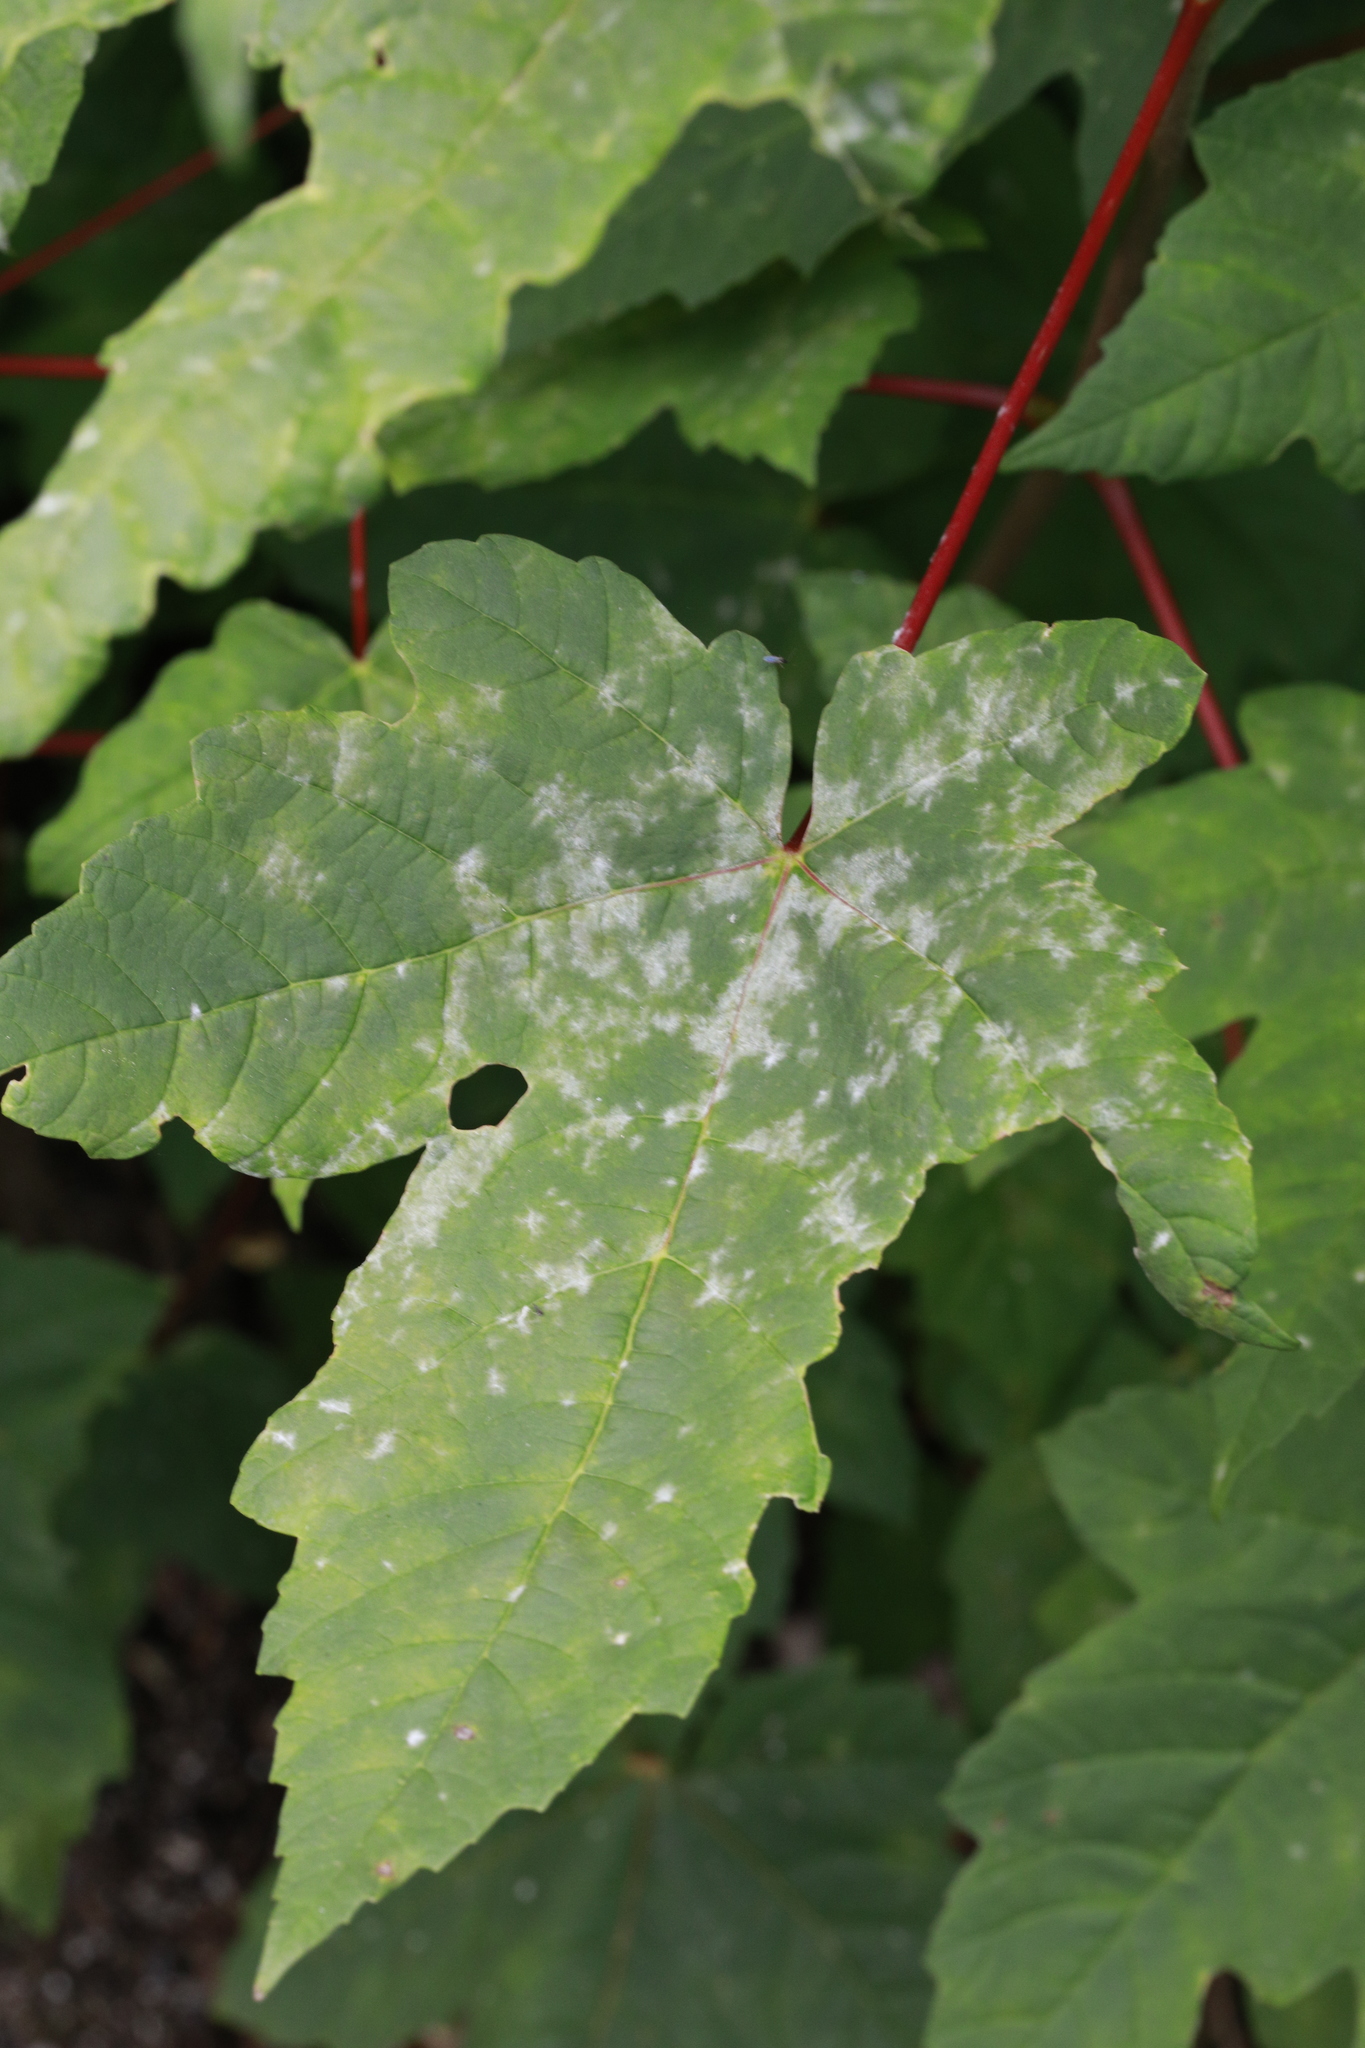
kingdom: Fungi
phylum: Ascomycota
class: Leotiomycetes
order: Helotiales
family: Erysiphaceae
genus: Sawadaea
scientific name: Sawadaea bicornis
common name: Maple mildew
